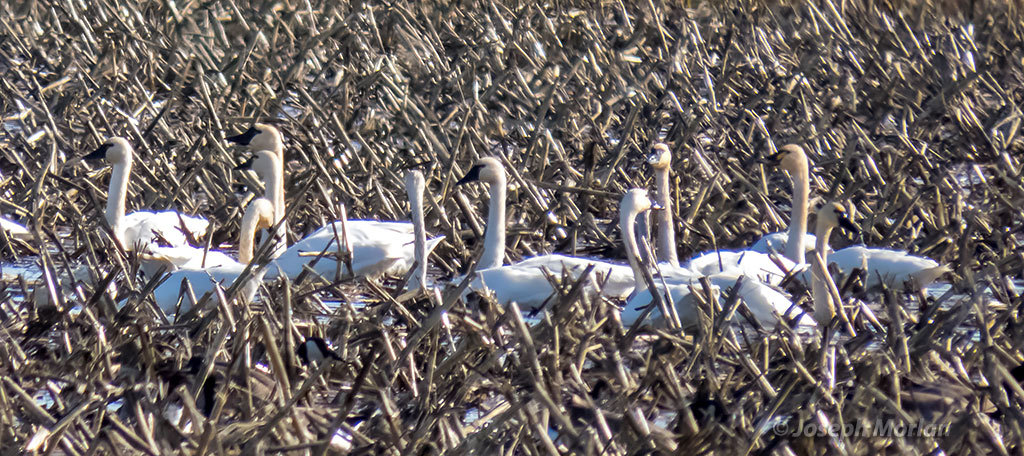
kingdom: Animalia
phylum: Chordata
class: Aves
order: Anseriformes
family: Anatidae
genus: Cygnus
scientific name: Cygnus columbianus
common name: Tundra swan
